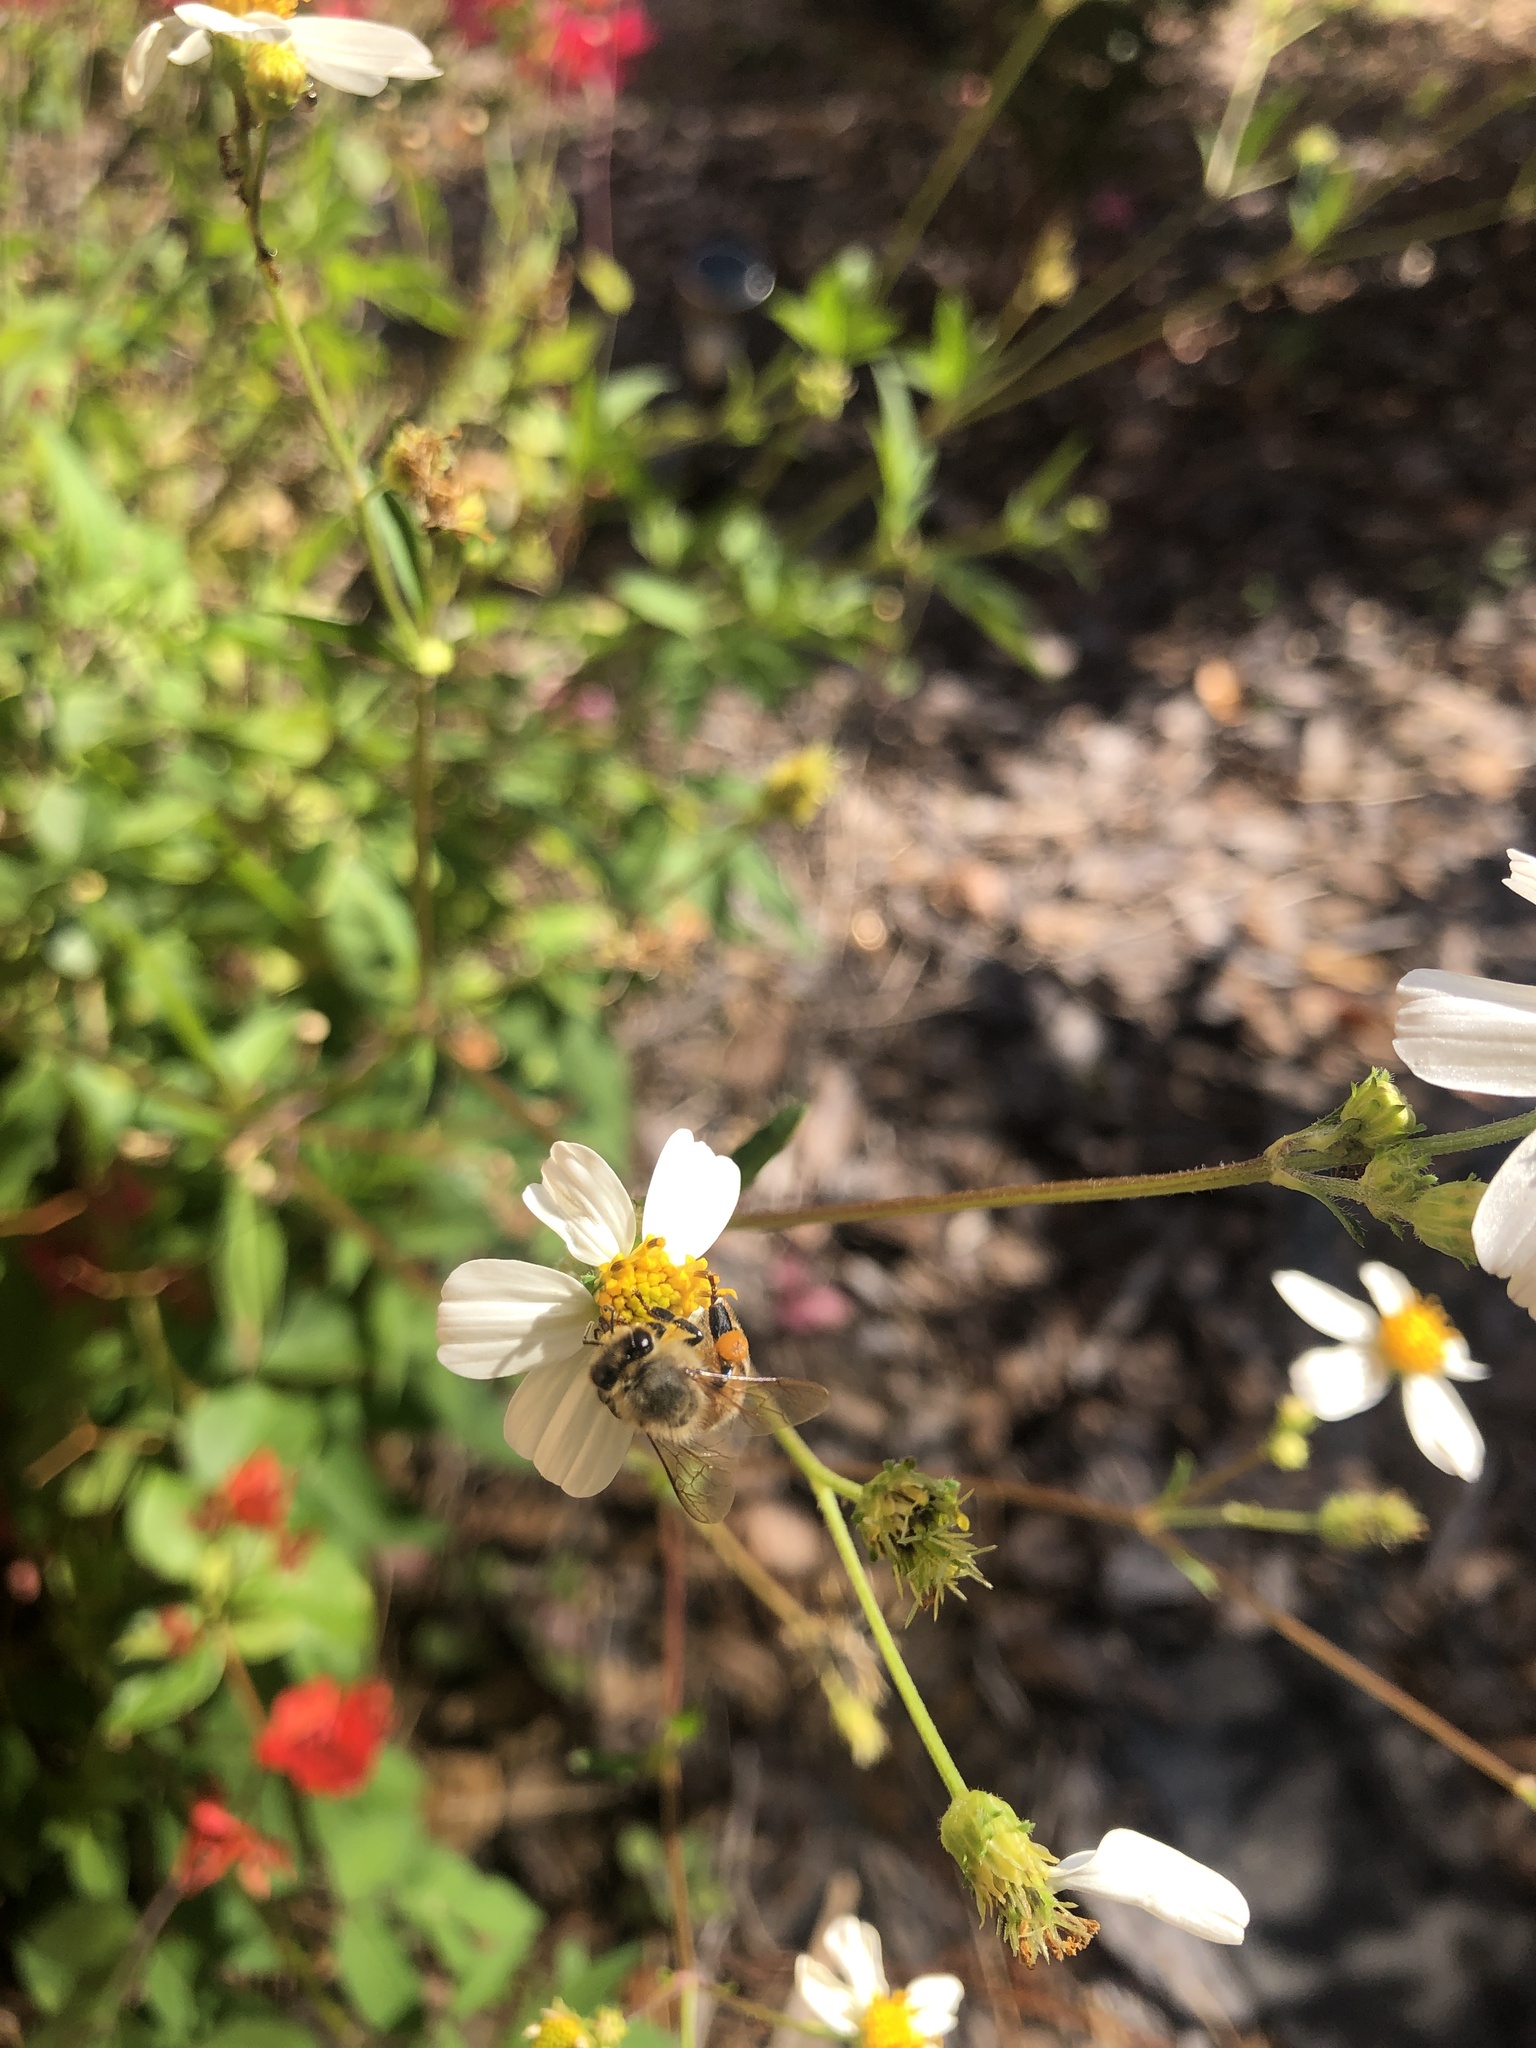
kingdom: Animalia
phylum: Arthropoda
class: Insecta
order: Hymenoptera
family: Apidae
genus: Apis
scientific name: Apis mellifera
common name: Honey bee
